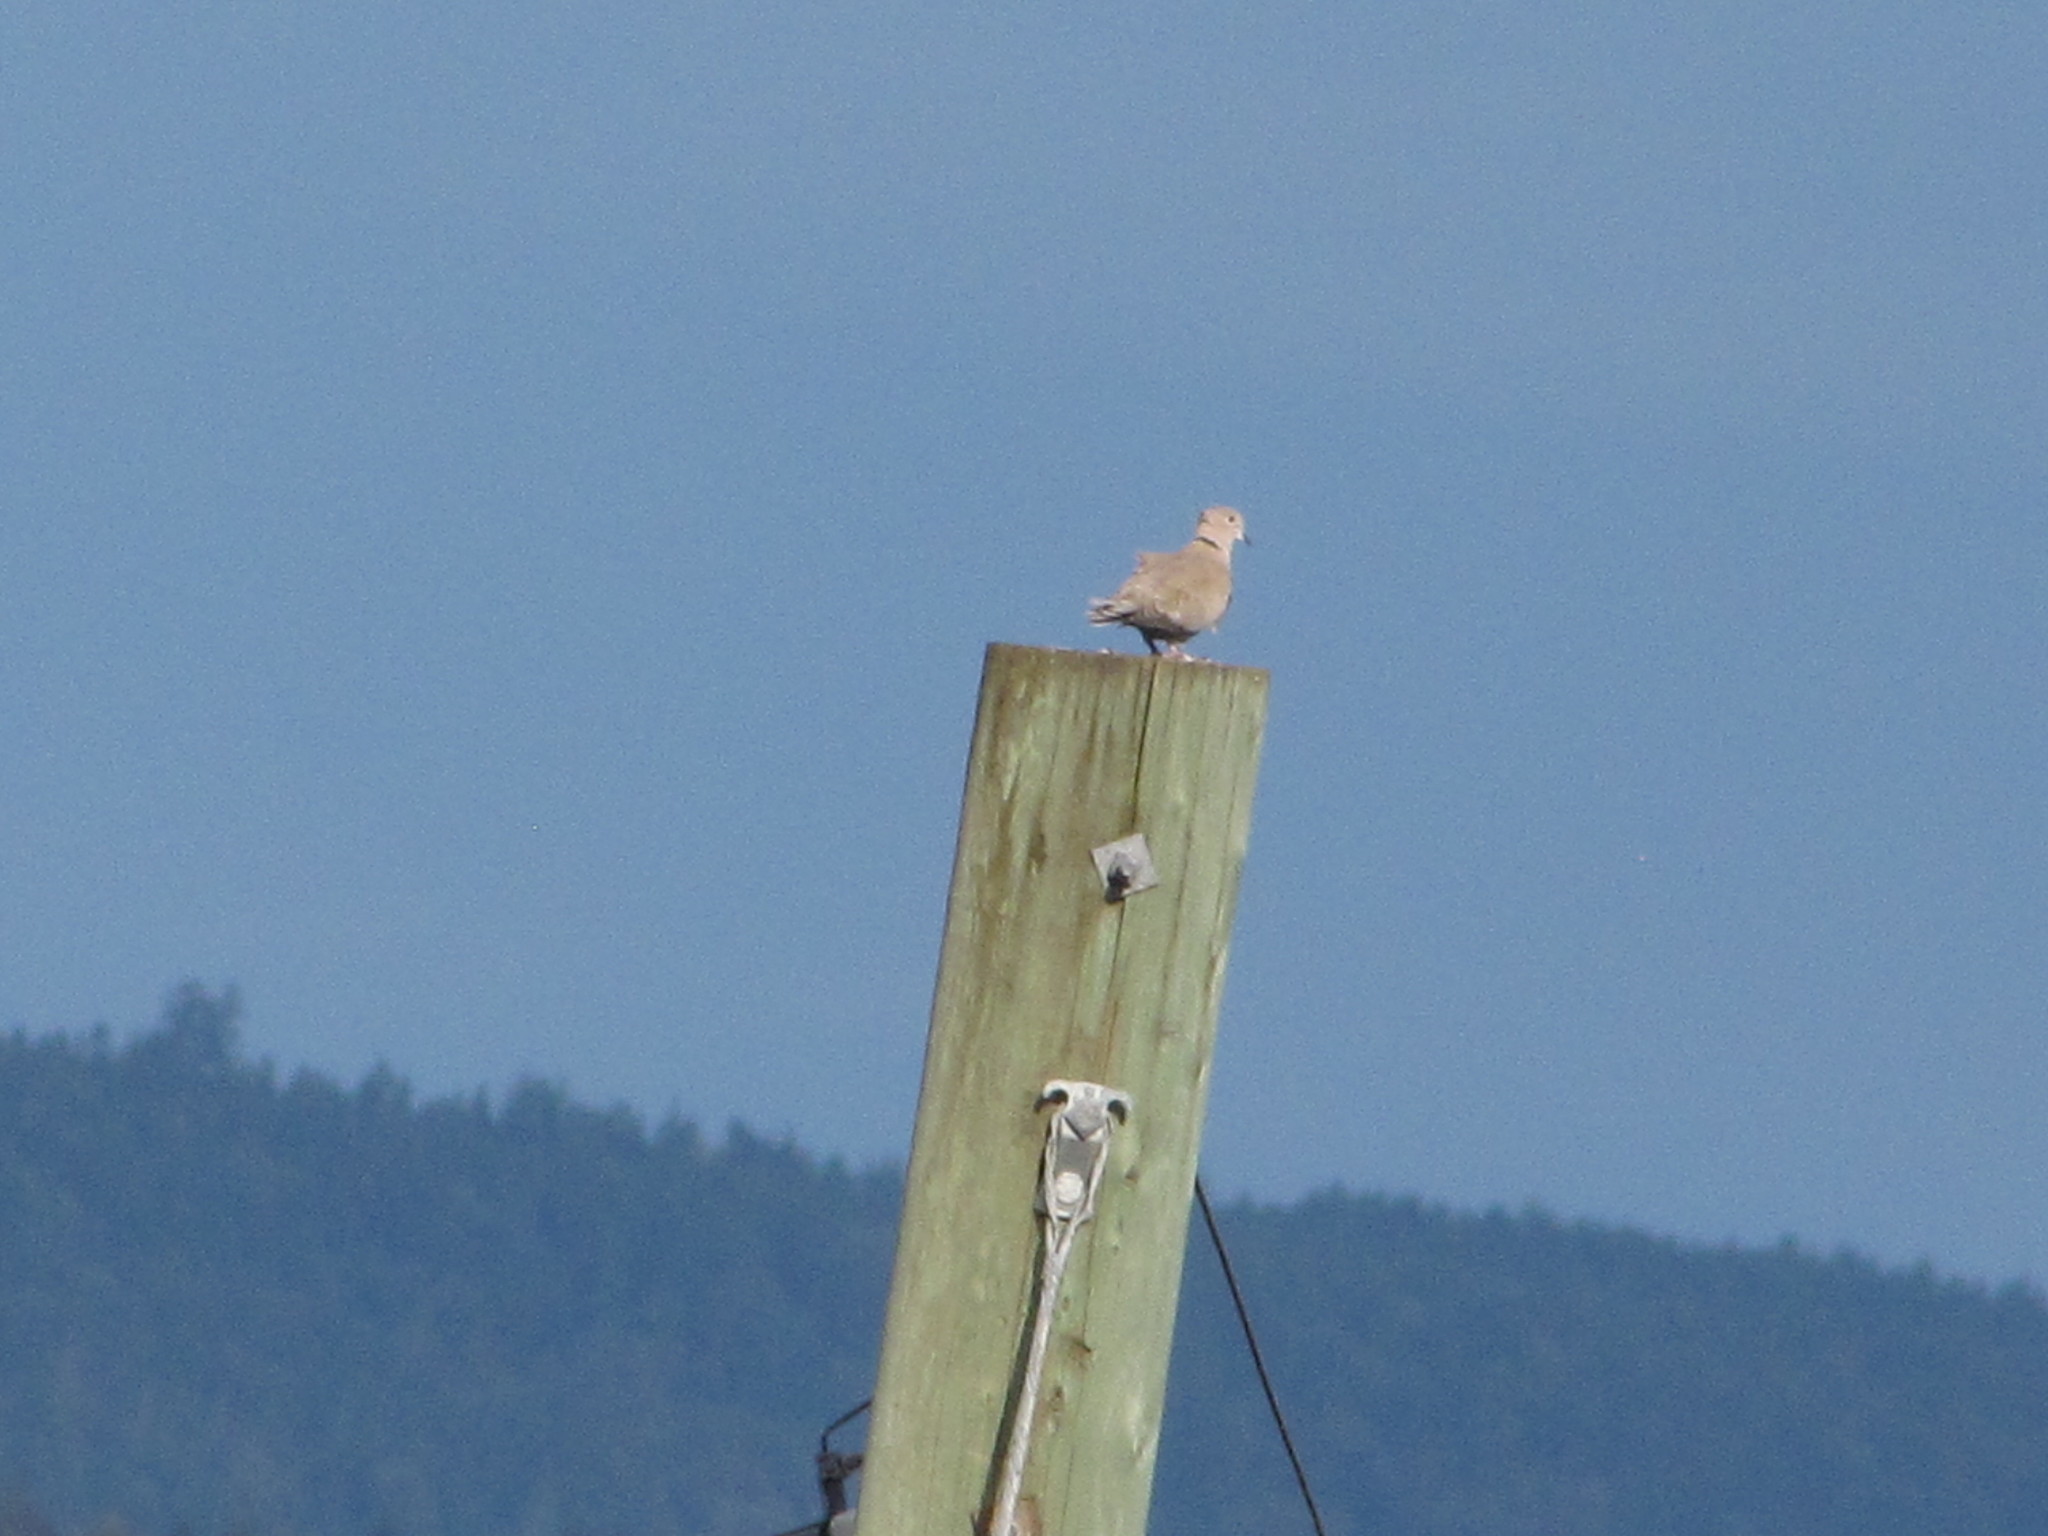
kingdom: Animalia
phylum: Chordata
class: Aves
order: Columbiformes
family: Columbidae
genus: Streptopelia
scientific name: Streptopelia decaocto
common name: Eurasian collared dove
